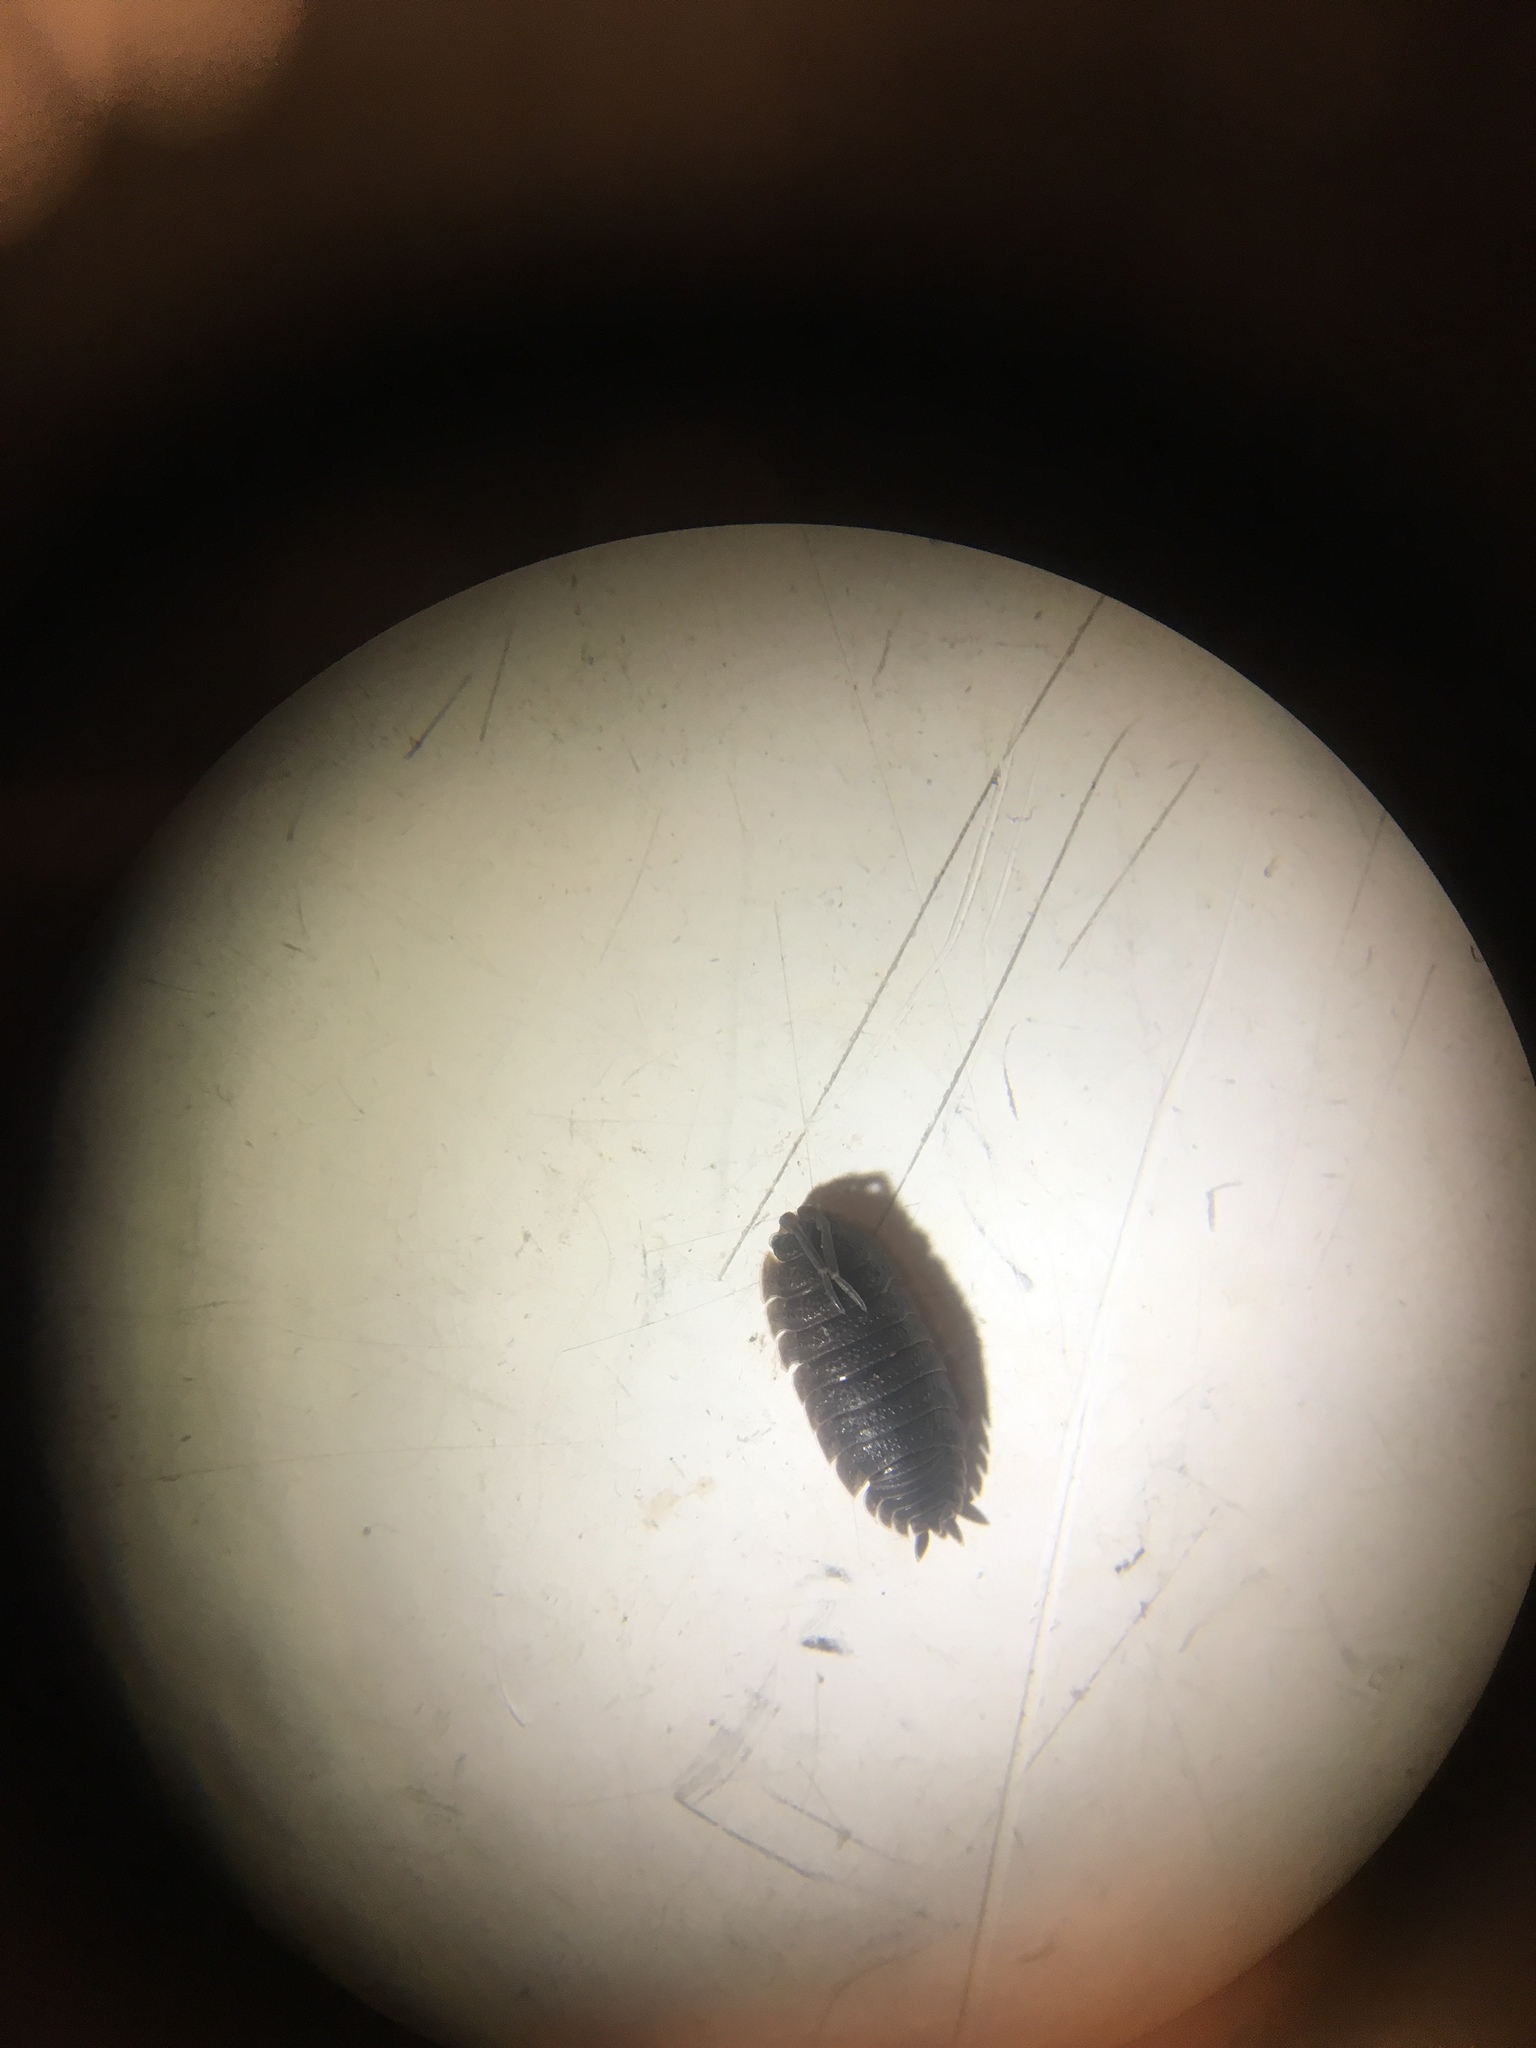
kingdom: Animalia
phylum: Arthropoda
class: Malacostraca
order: Isopoda
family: Porcellionidae
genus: Porcellio
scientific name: Porcellio scaber
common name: Common rough woodlouse
